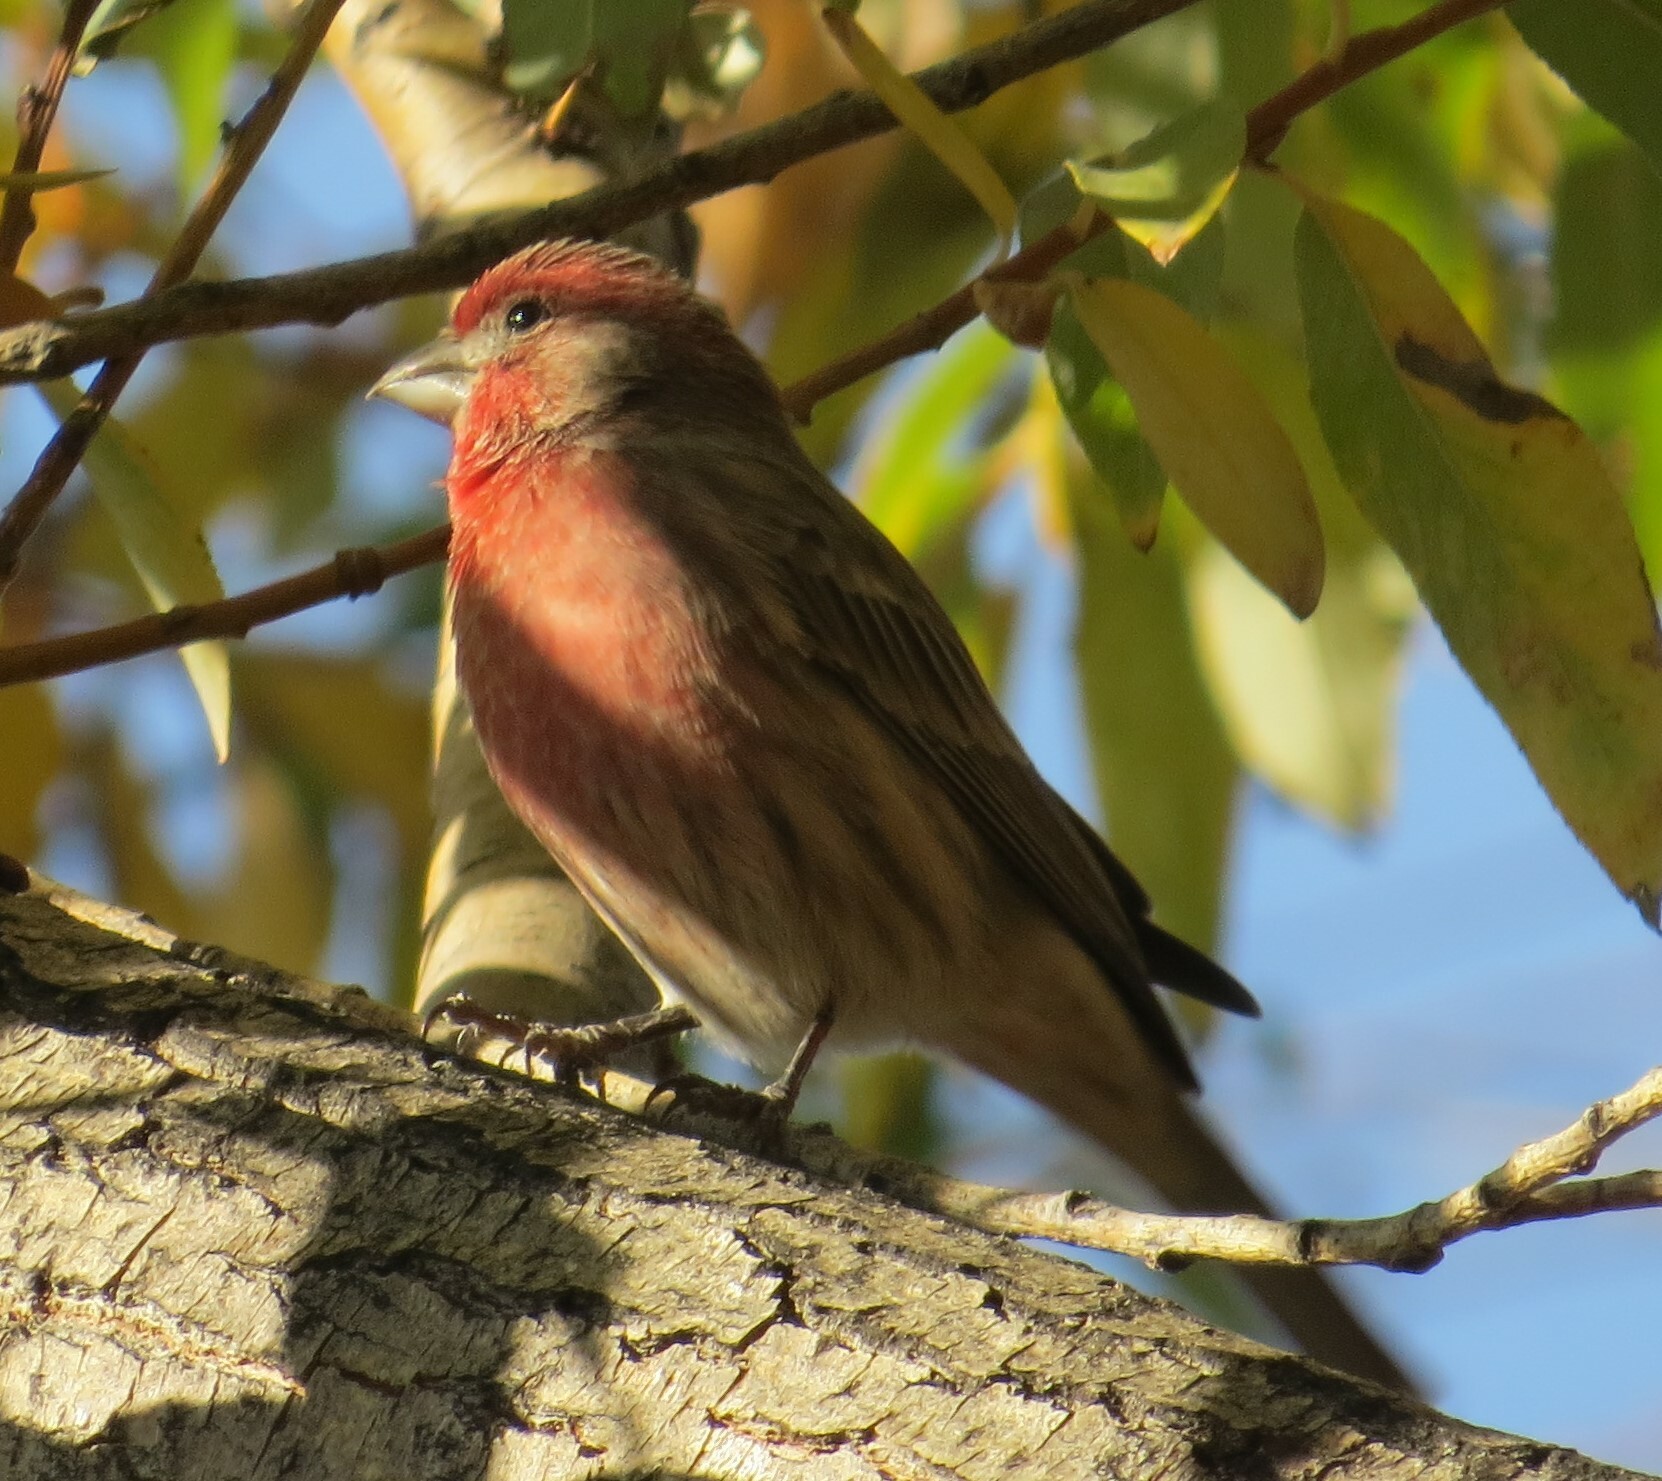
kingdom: Animalia
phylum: Chordata
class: Aves
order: Passeriformes
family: Fringillidae
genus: Haemorhous
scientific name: Haemorhous mexicanus
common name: House finch
